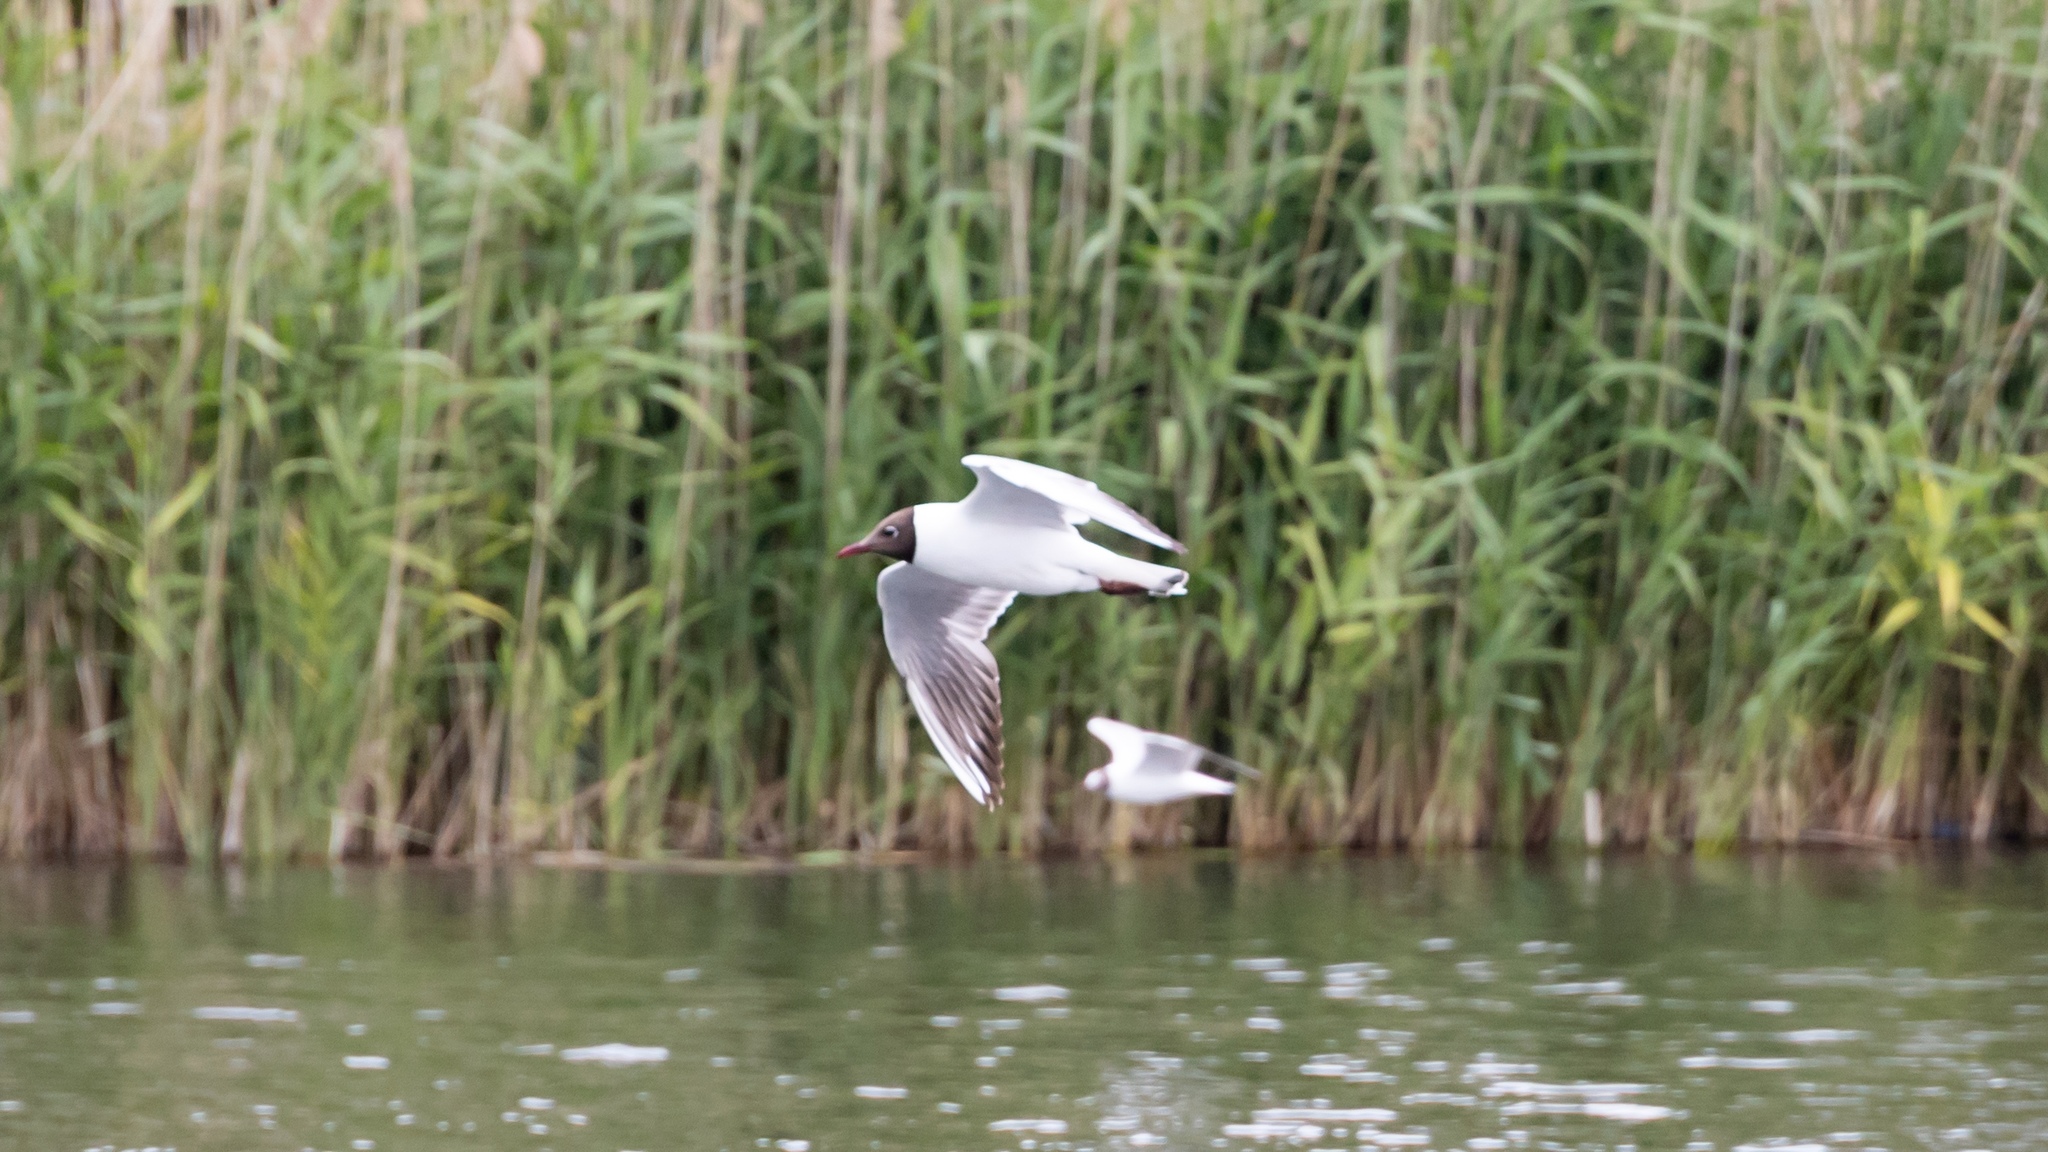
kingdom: Animalia
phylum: Chordata
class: Aves
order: Charadriiformes
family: Laridae
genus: Chroicocephalus
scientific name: Chroicocephalus ridibundus
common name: Black-headed gull
